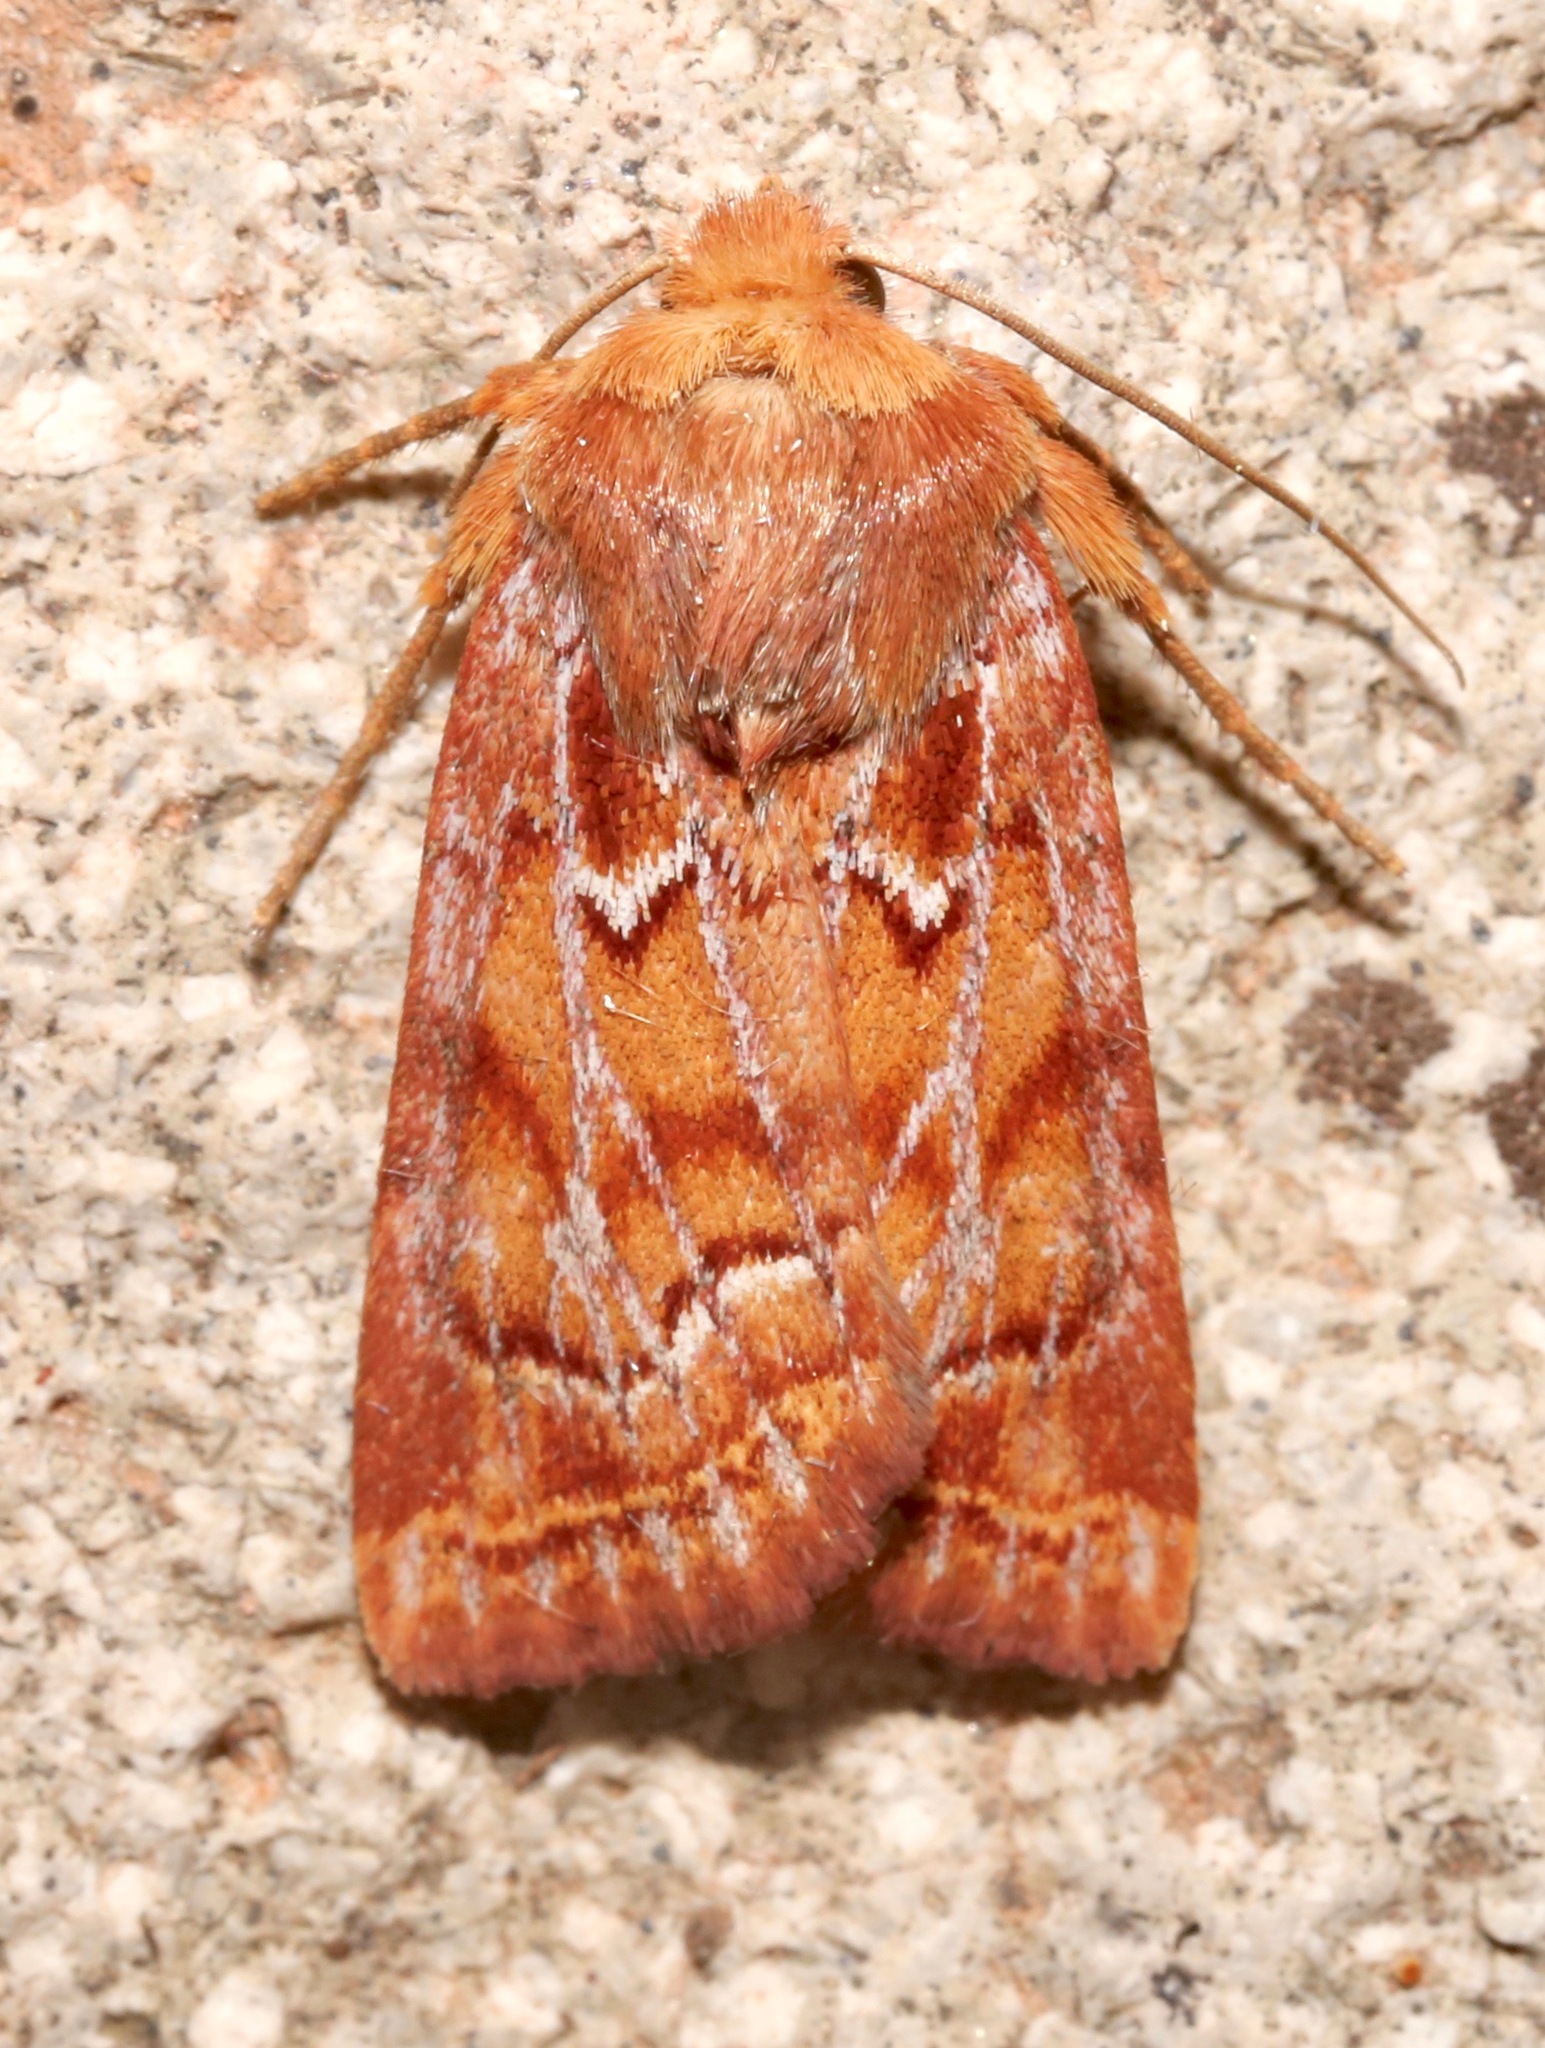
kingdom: Animalia
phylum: Arthropoda
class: Insecta
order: Lepidoptera
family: Noctuidae
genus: Homorthodes
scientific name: Homorthodes reliqua
